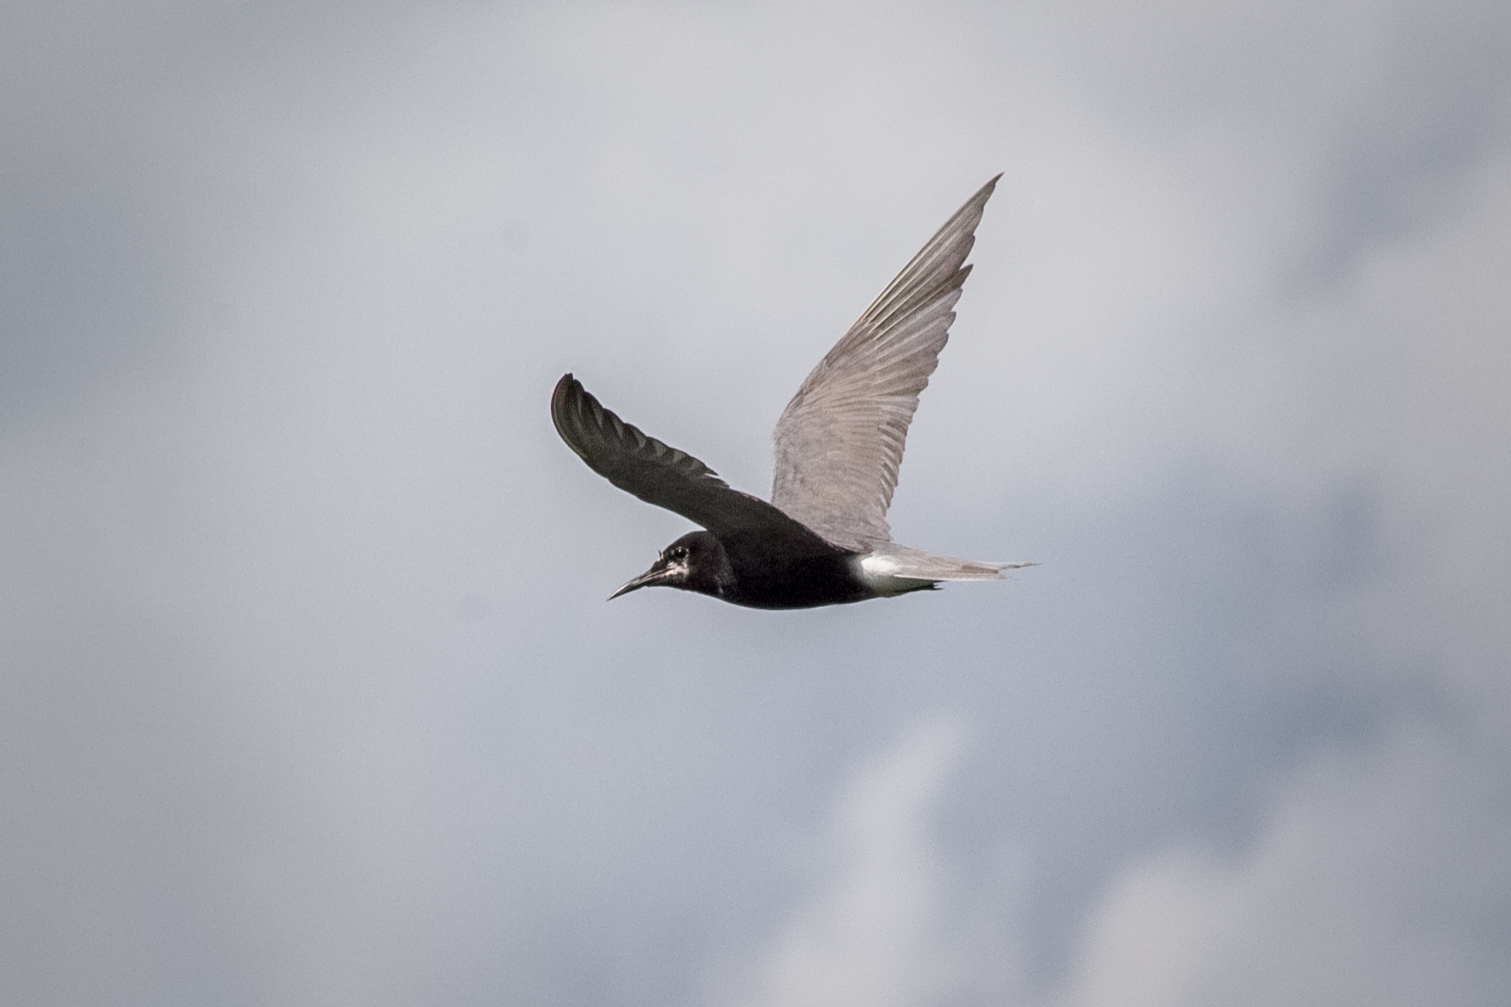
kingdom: Animalia
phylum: Chordata
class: Aves
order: Charadriiformes
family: Laridae
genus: Chlidonias
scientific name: Chlidonias niger
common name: Black tern
